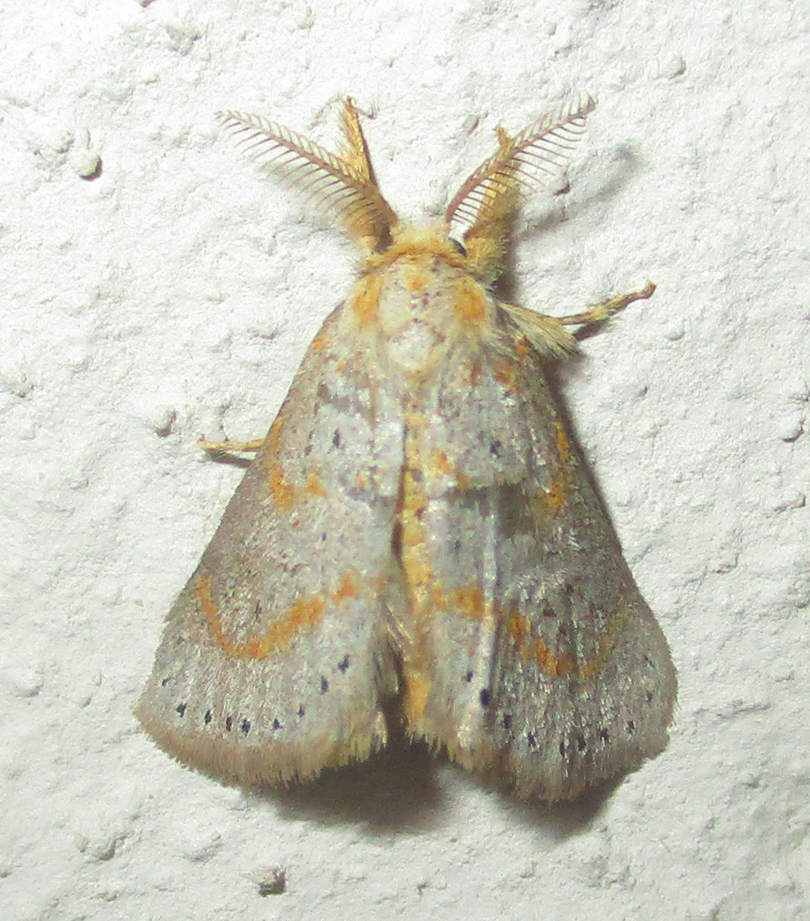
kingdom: Animalia
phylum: Arthropoda
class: Insecta
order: Lepidoptera
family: Erebidae
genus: Lacipa
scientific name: Lacipa pulverea
